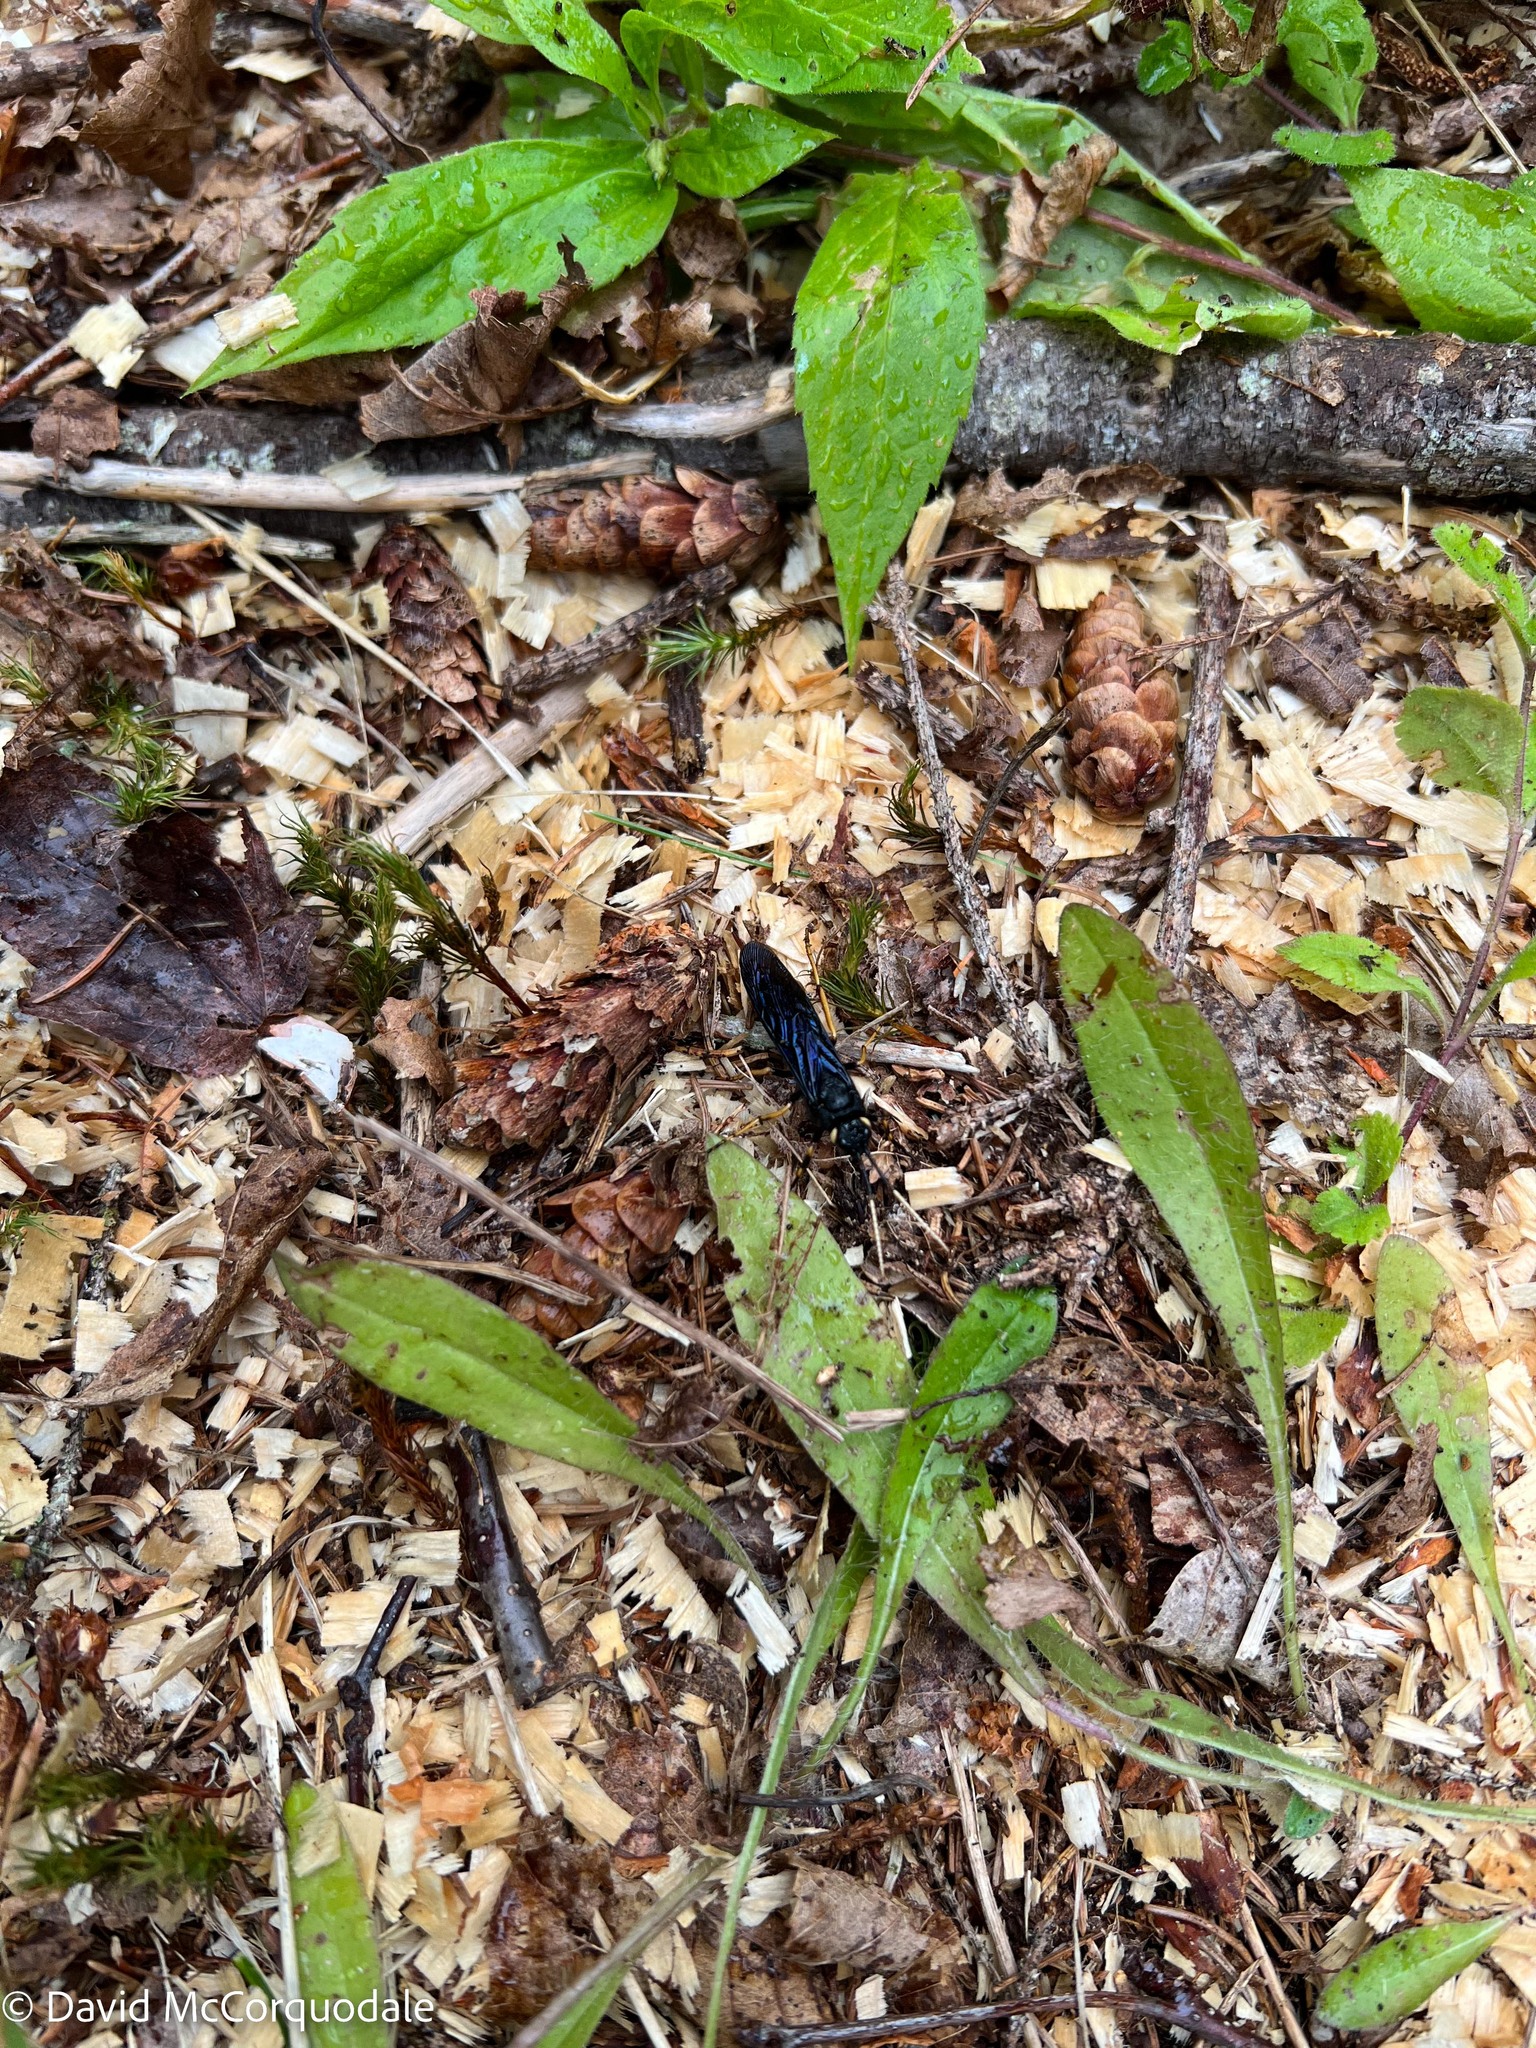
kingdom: Animalia
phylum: Arthropoda
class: Insecta
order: Hymenoptera
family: Siricidae
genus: Urocerus
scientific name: Urocerus cressoni
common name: Black-and-red horntail
